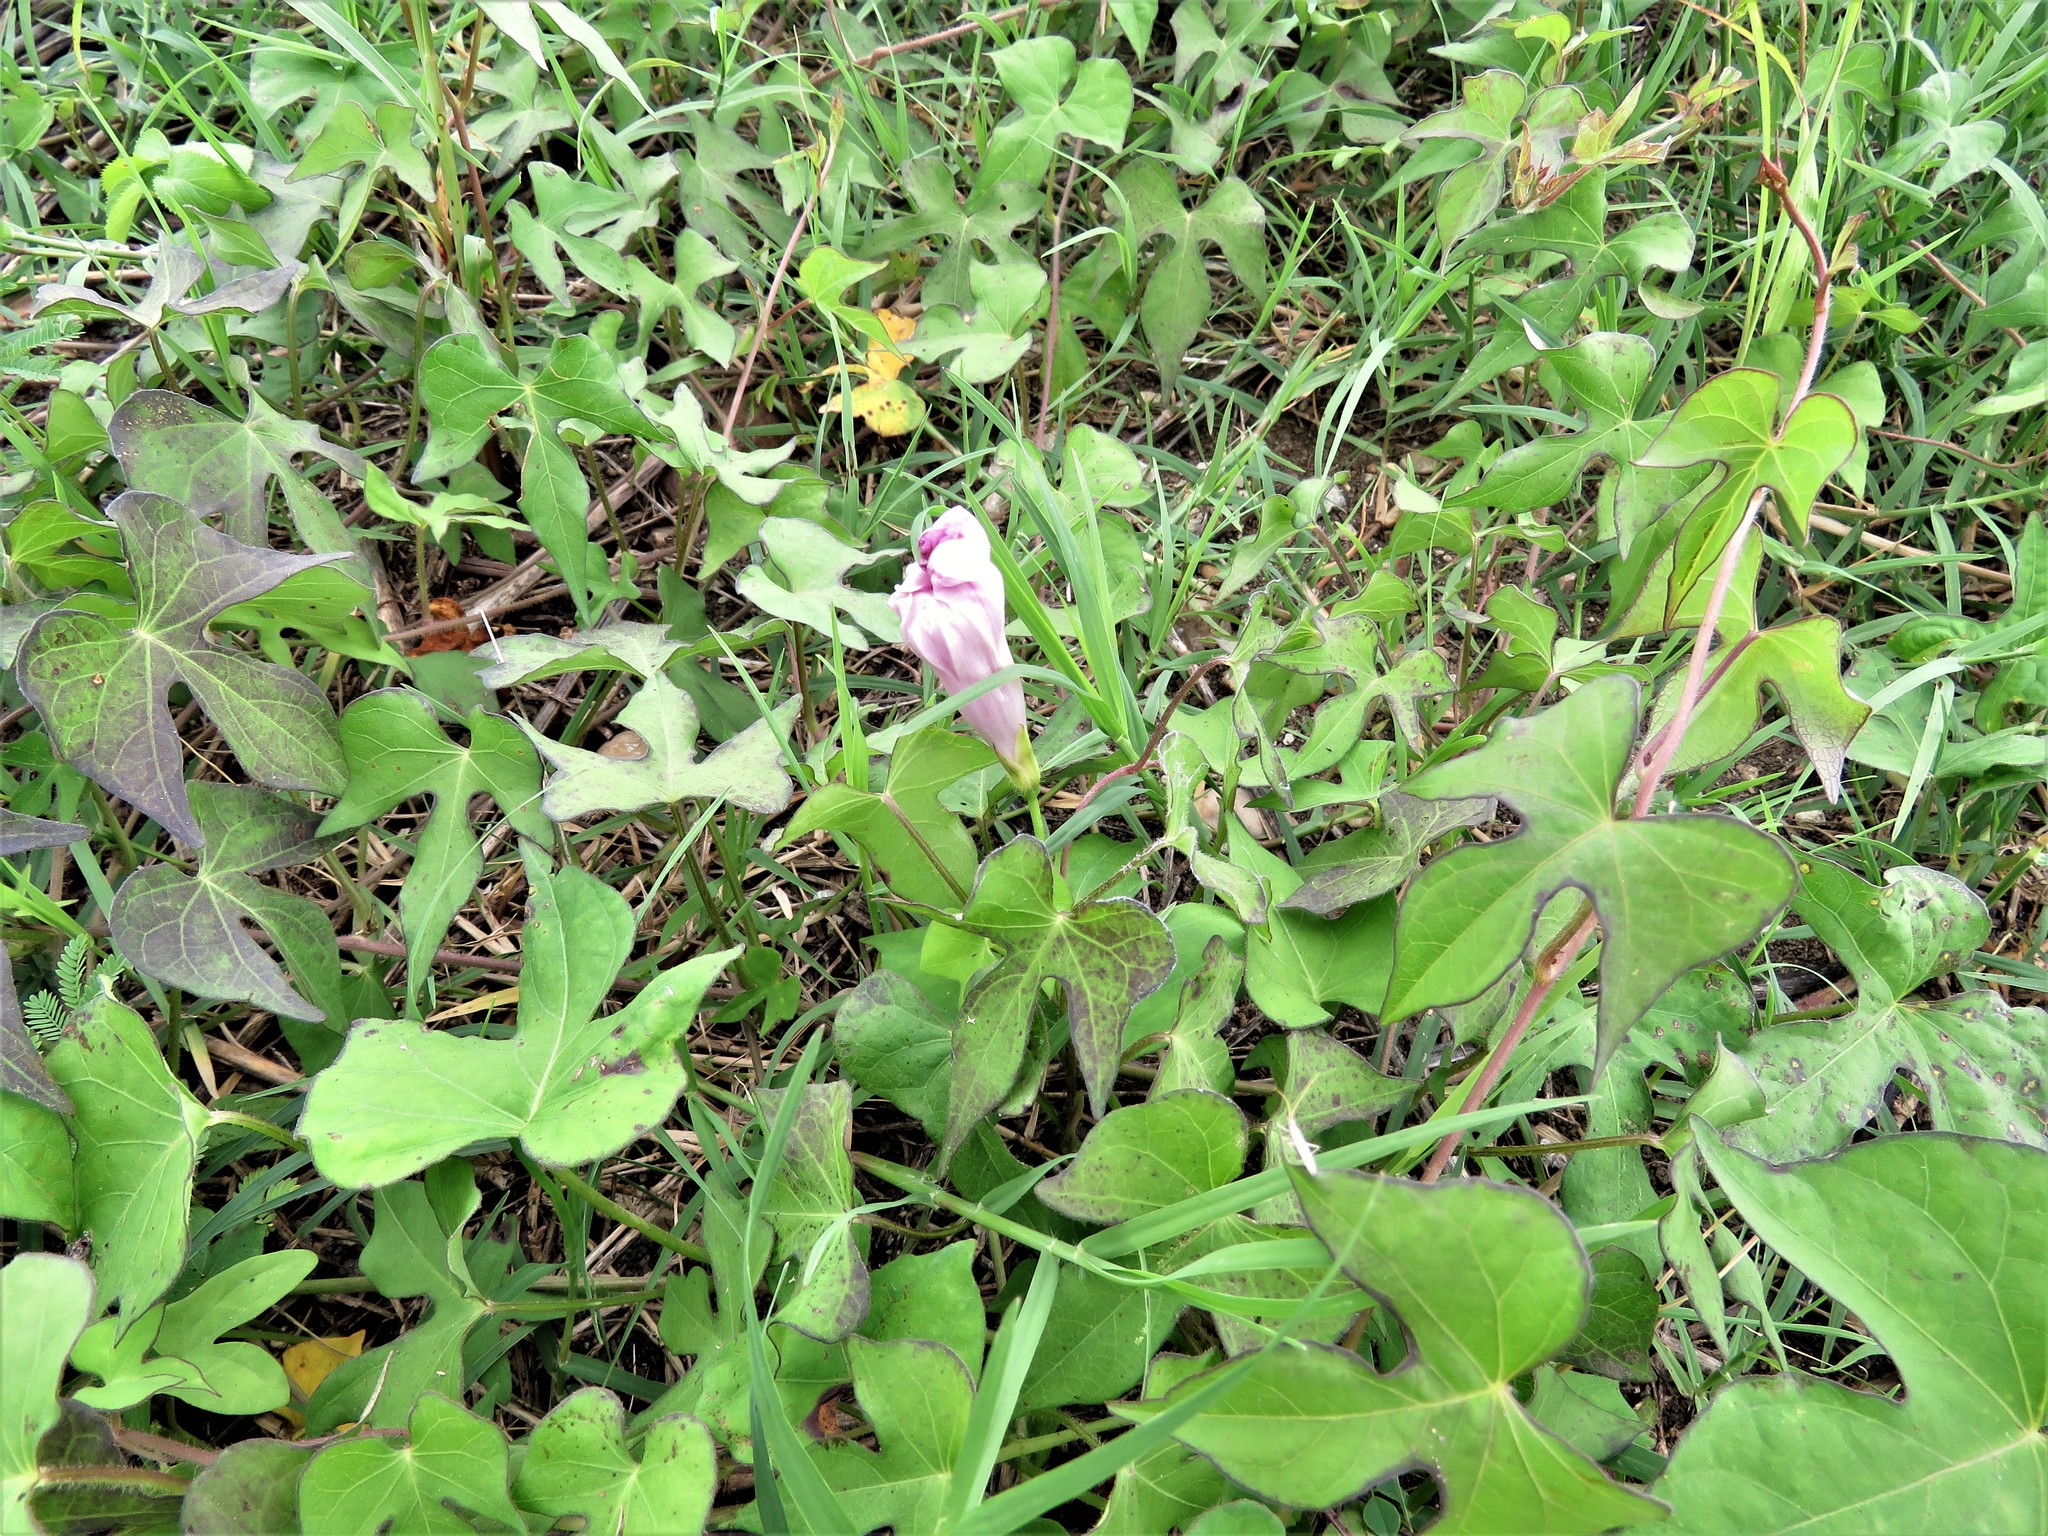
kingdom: Plantae
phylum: Tracheophyta
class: Magnoliopsida
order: Solanales
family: Convolvulaceae
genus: Ipomoea
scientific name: Ipomoea cordatotriloba
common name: Cotton morning glory
